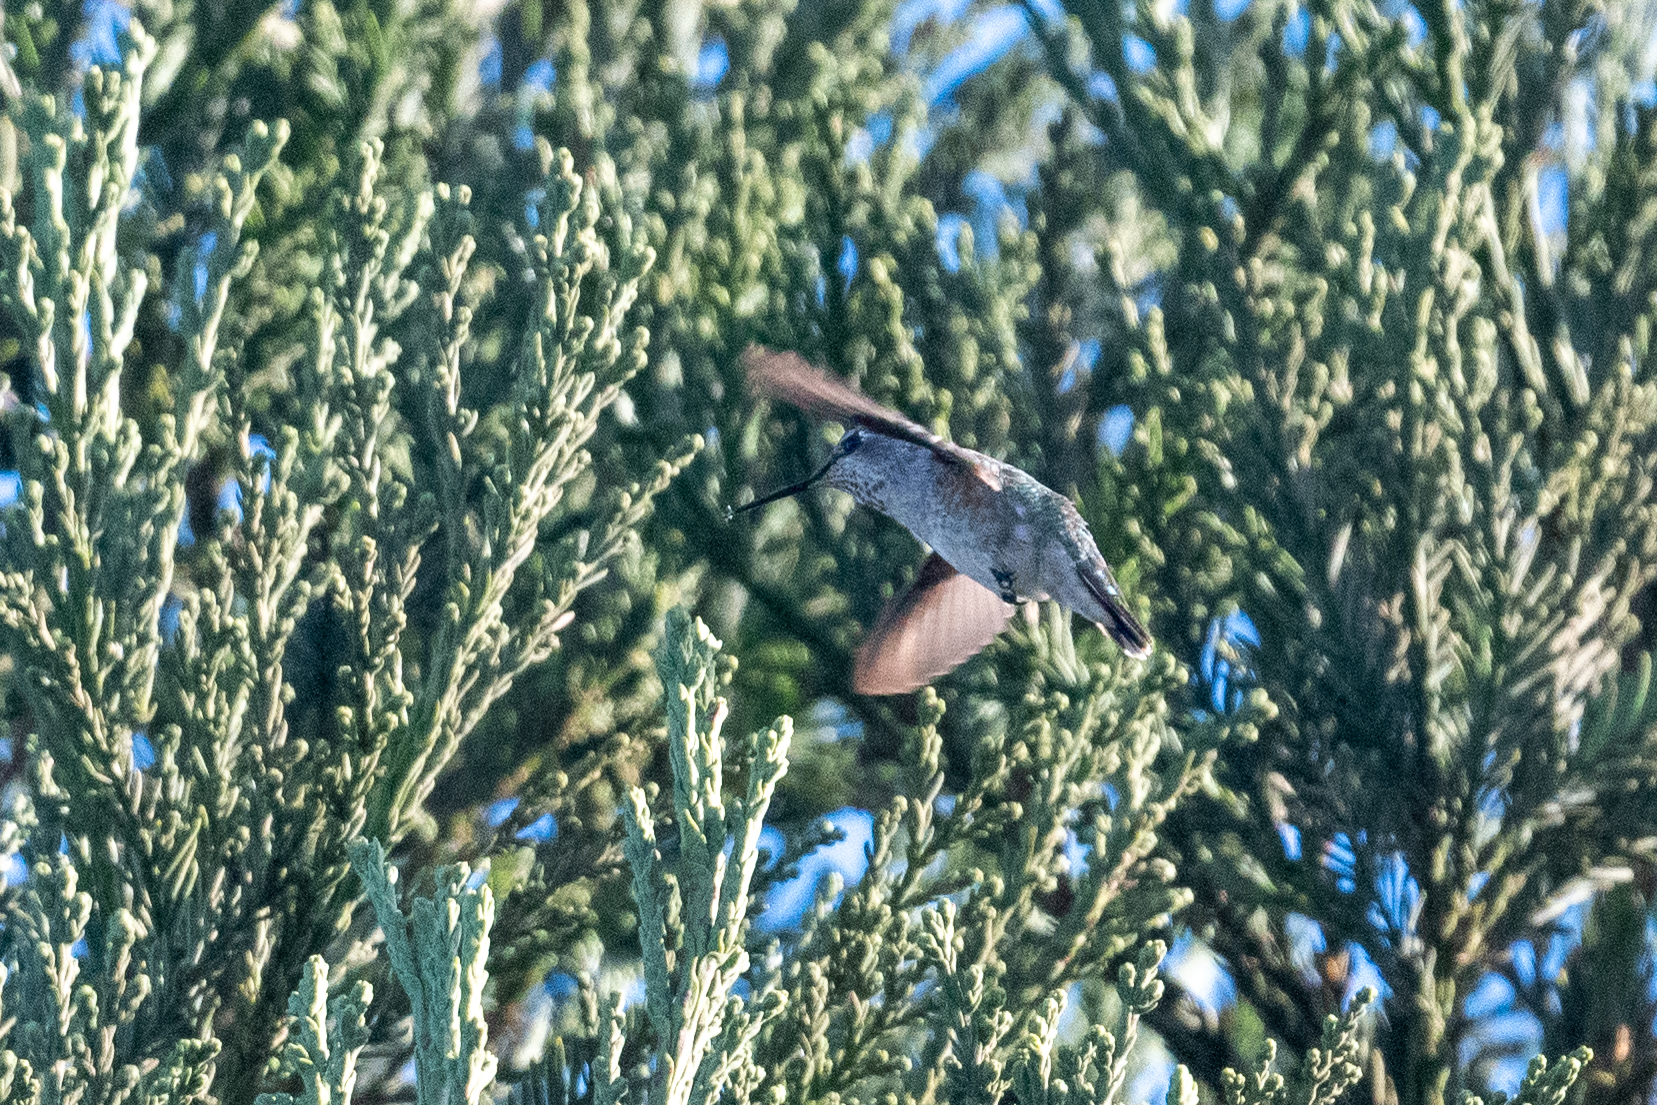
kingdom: Animalia
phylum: Chordata
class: Aves
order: Apodiformes
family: Trochilidae
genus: Calypte
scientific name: Calypte anna
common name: Anna's hummingbird
